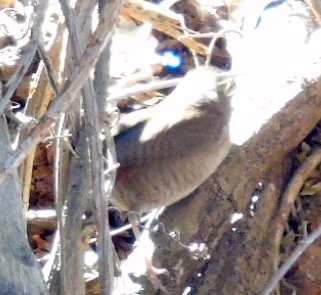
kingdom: Animalia
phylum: Chordata
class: Aves
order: Passeriformes
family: Troglodytidae
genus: Troglodytes
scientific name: Troglodytes aedon
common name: House wren
